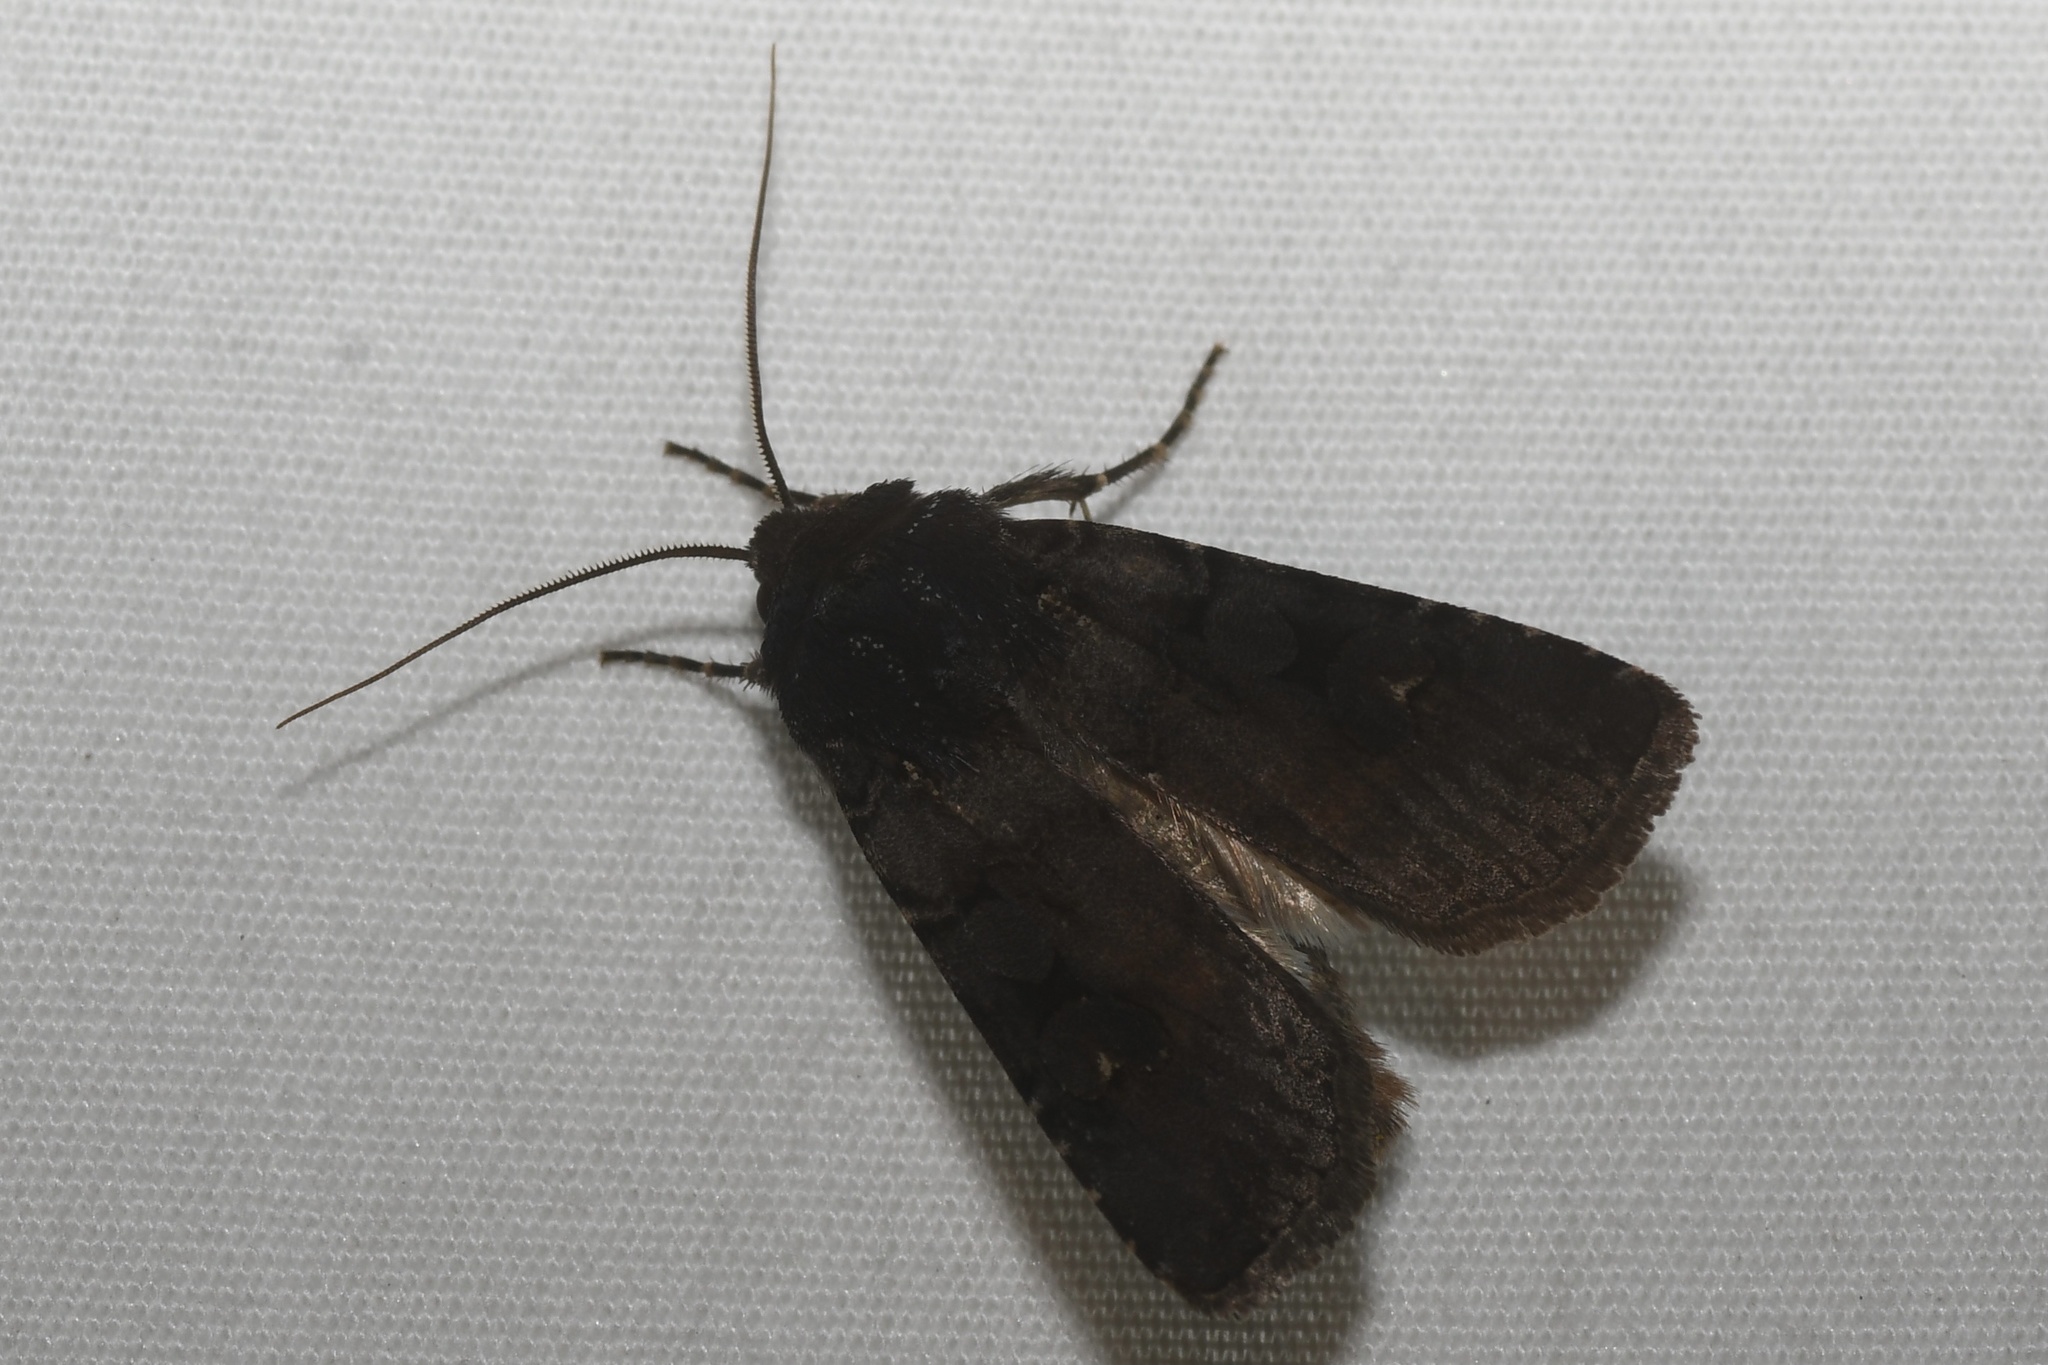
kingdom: Animalia
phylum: Arthropoda
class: Insecta
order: Lepidoptera
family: Noctuidae
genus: Euxoa
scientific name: Euxoa albipennis
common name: White-striped dart
